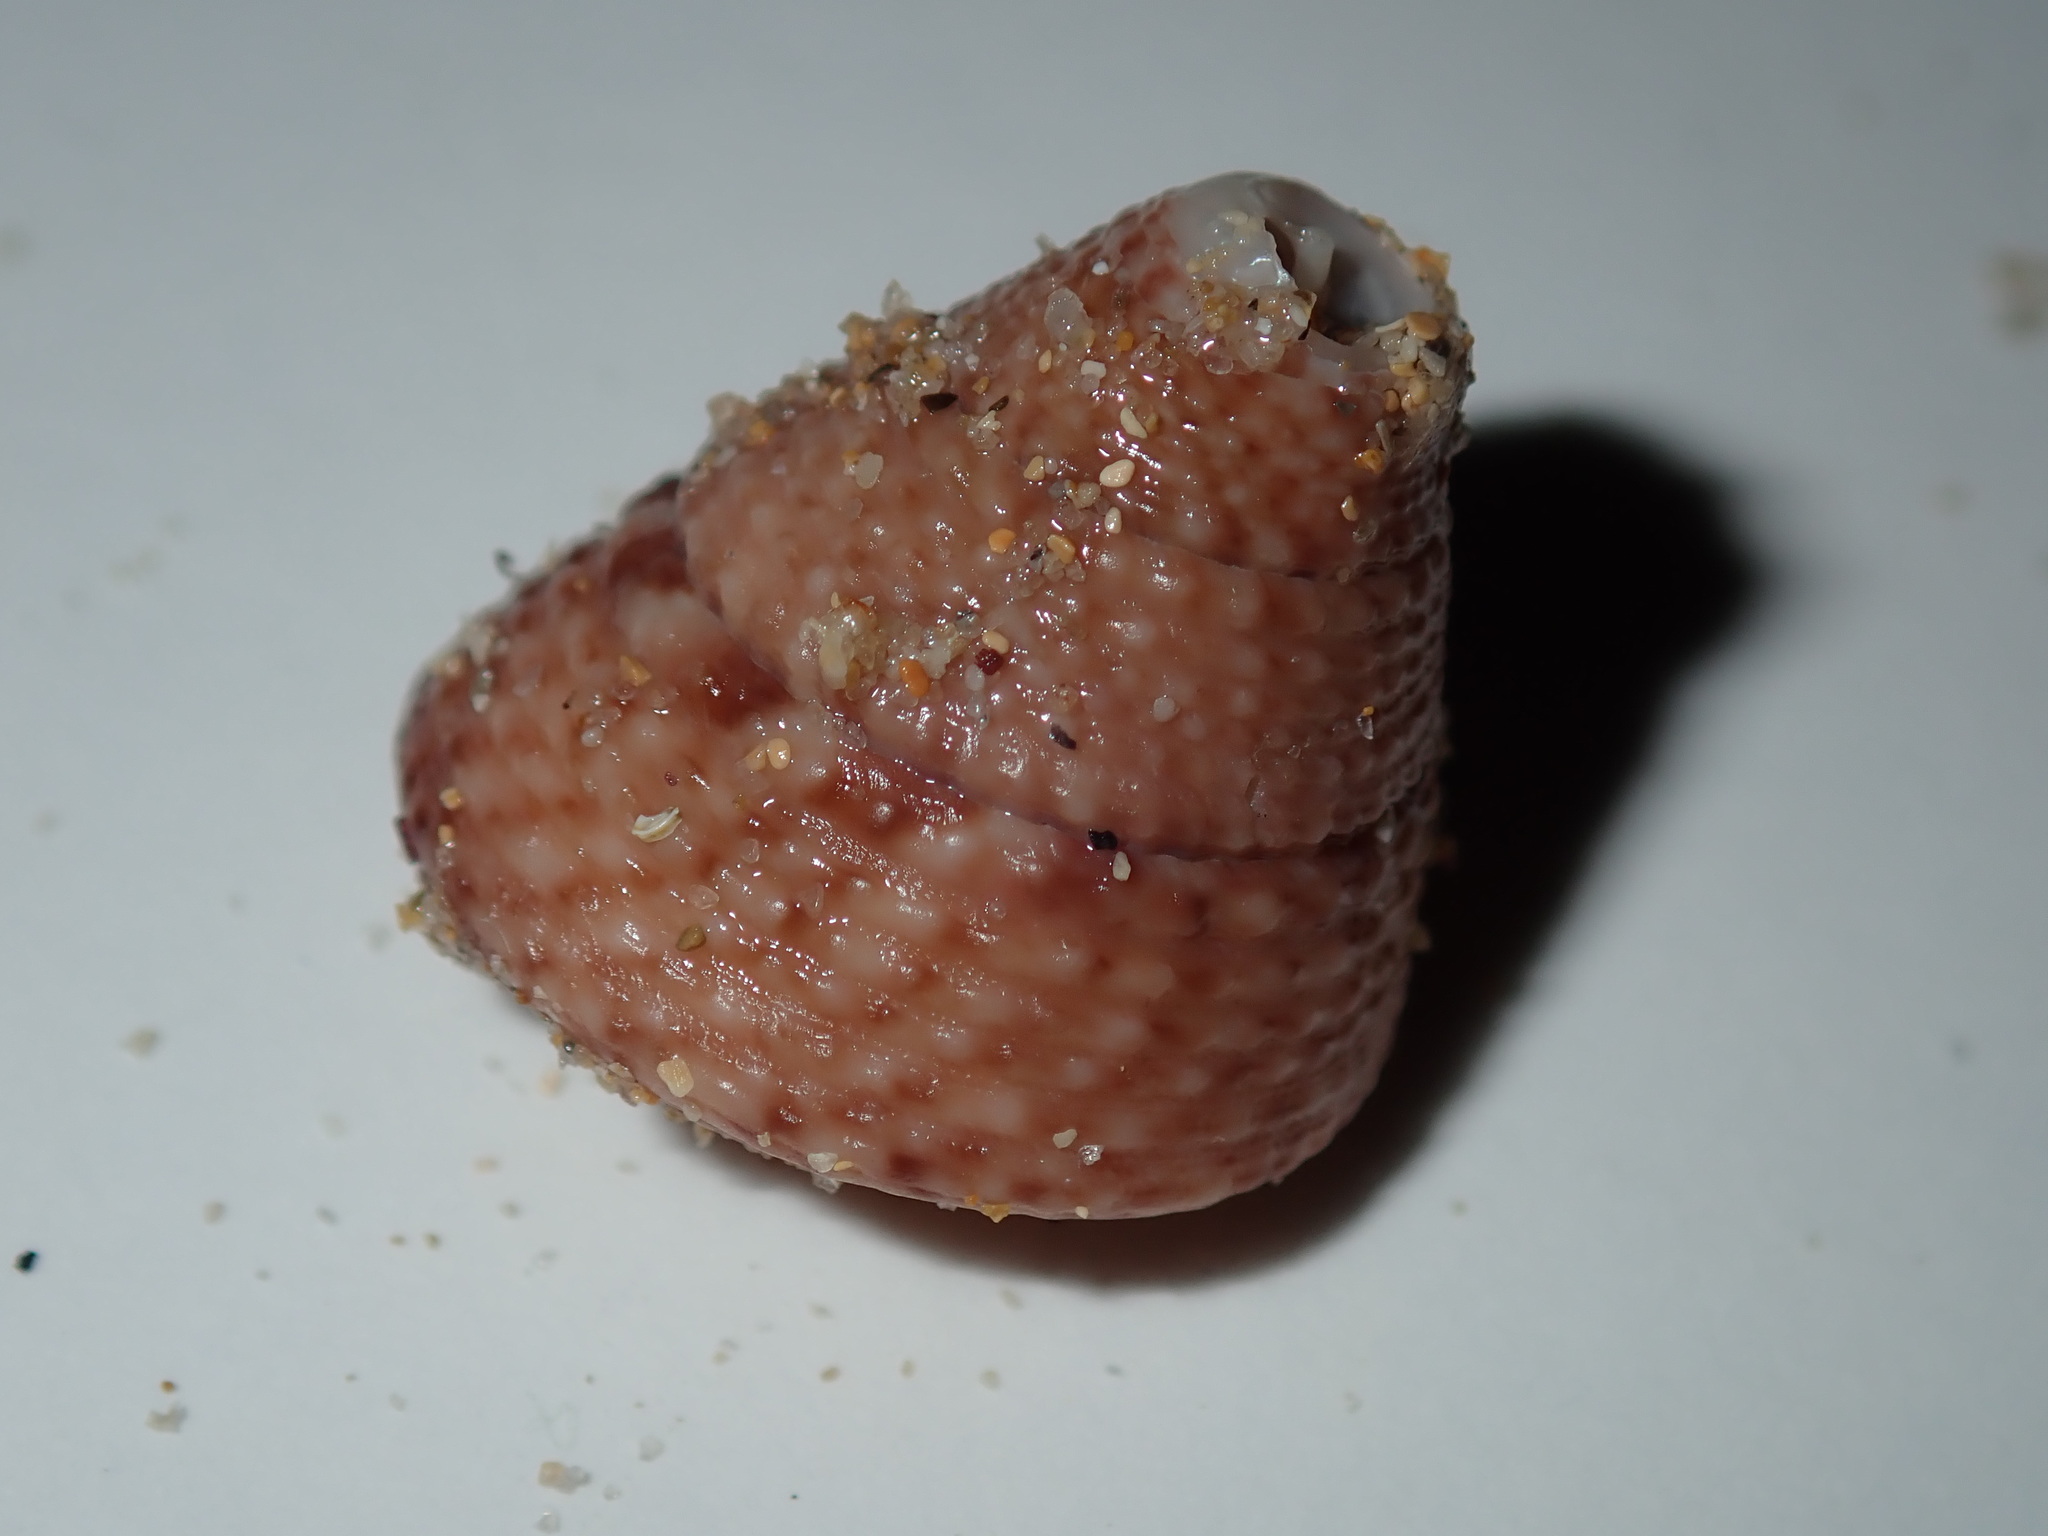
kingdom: Animalia
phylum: Mollusca
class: Gastropoda
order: Trochida
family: Trochidae
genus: Calthalotia
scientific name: Calthalotia fragum
